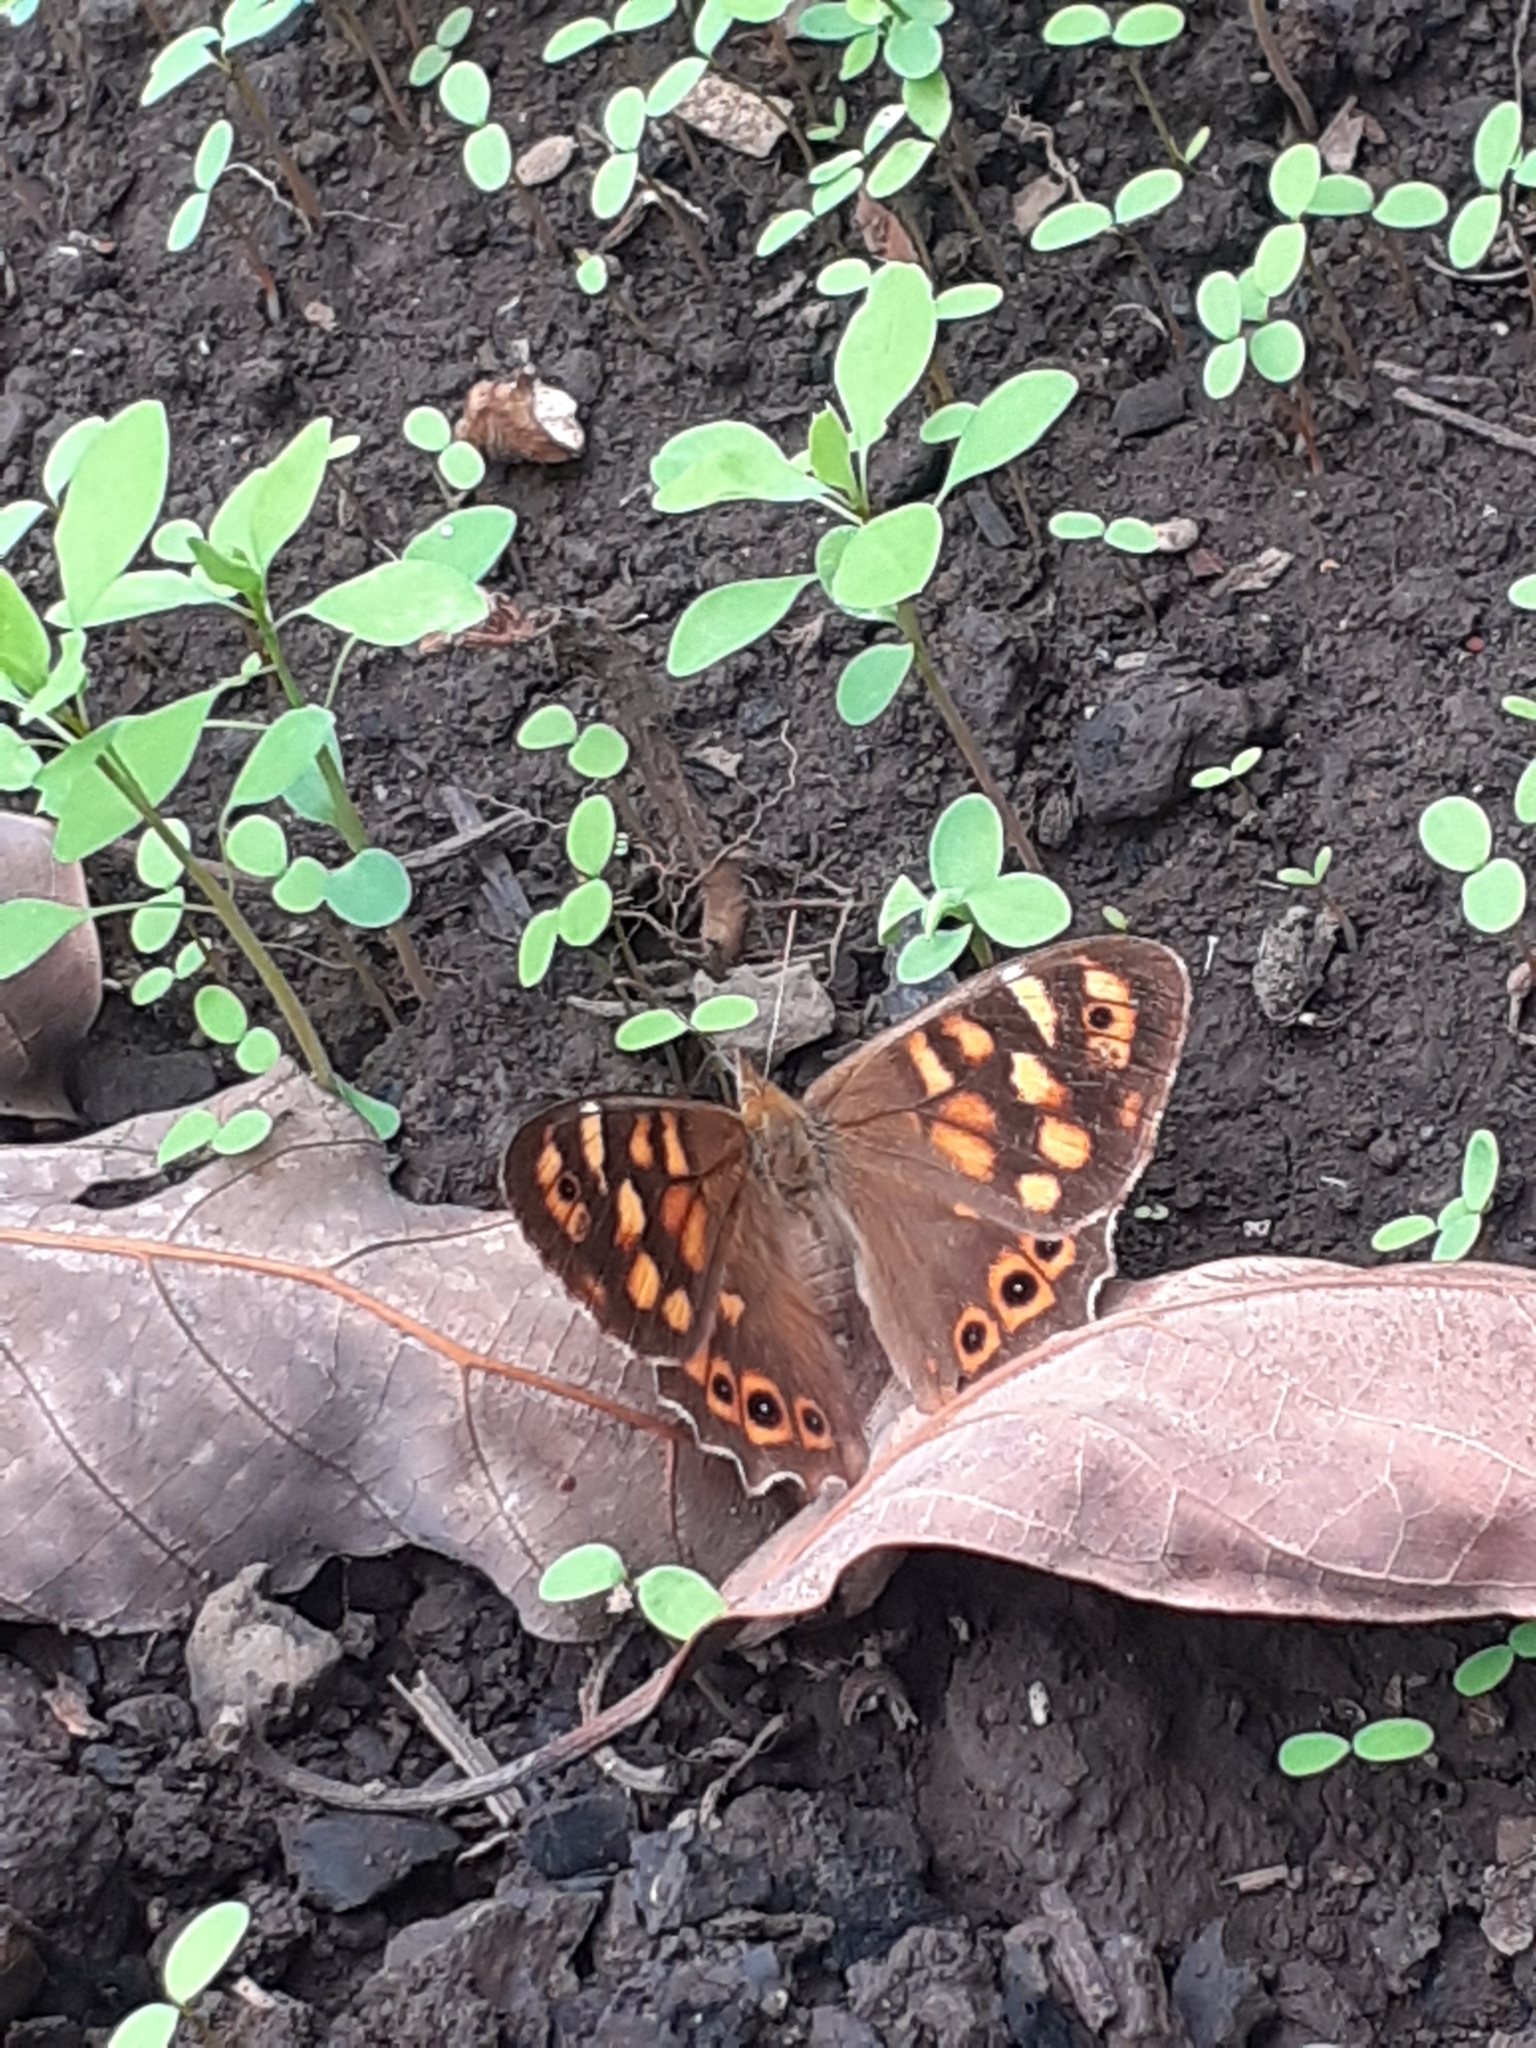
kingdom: Animalia
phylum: Arthropoda
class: Insecta
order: Lepidoptera
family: Nymphalidae
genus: Pararge
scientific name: Pararge aegeria
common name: Speckled wood
